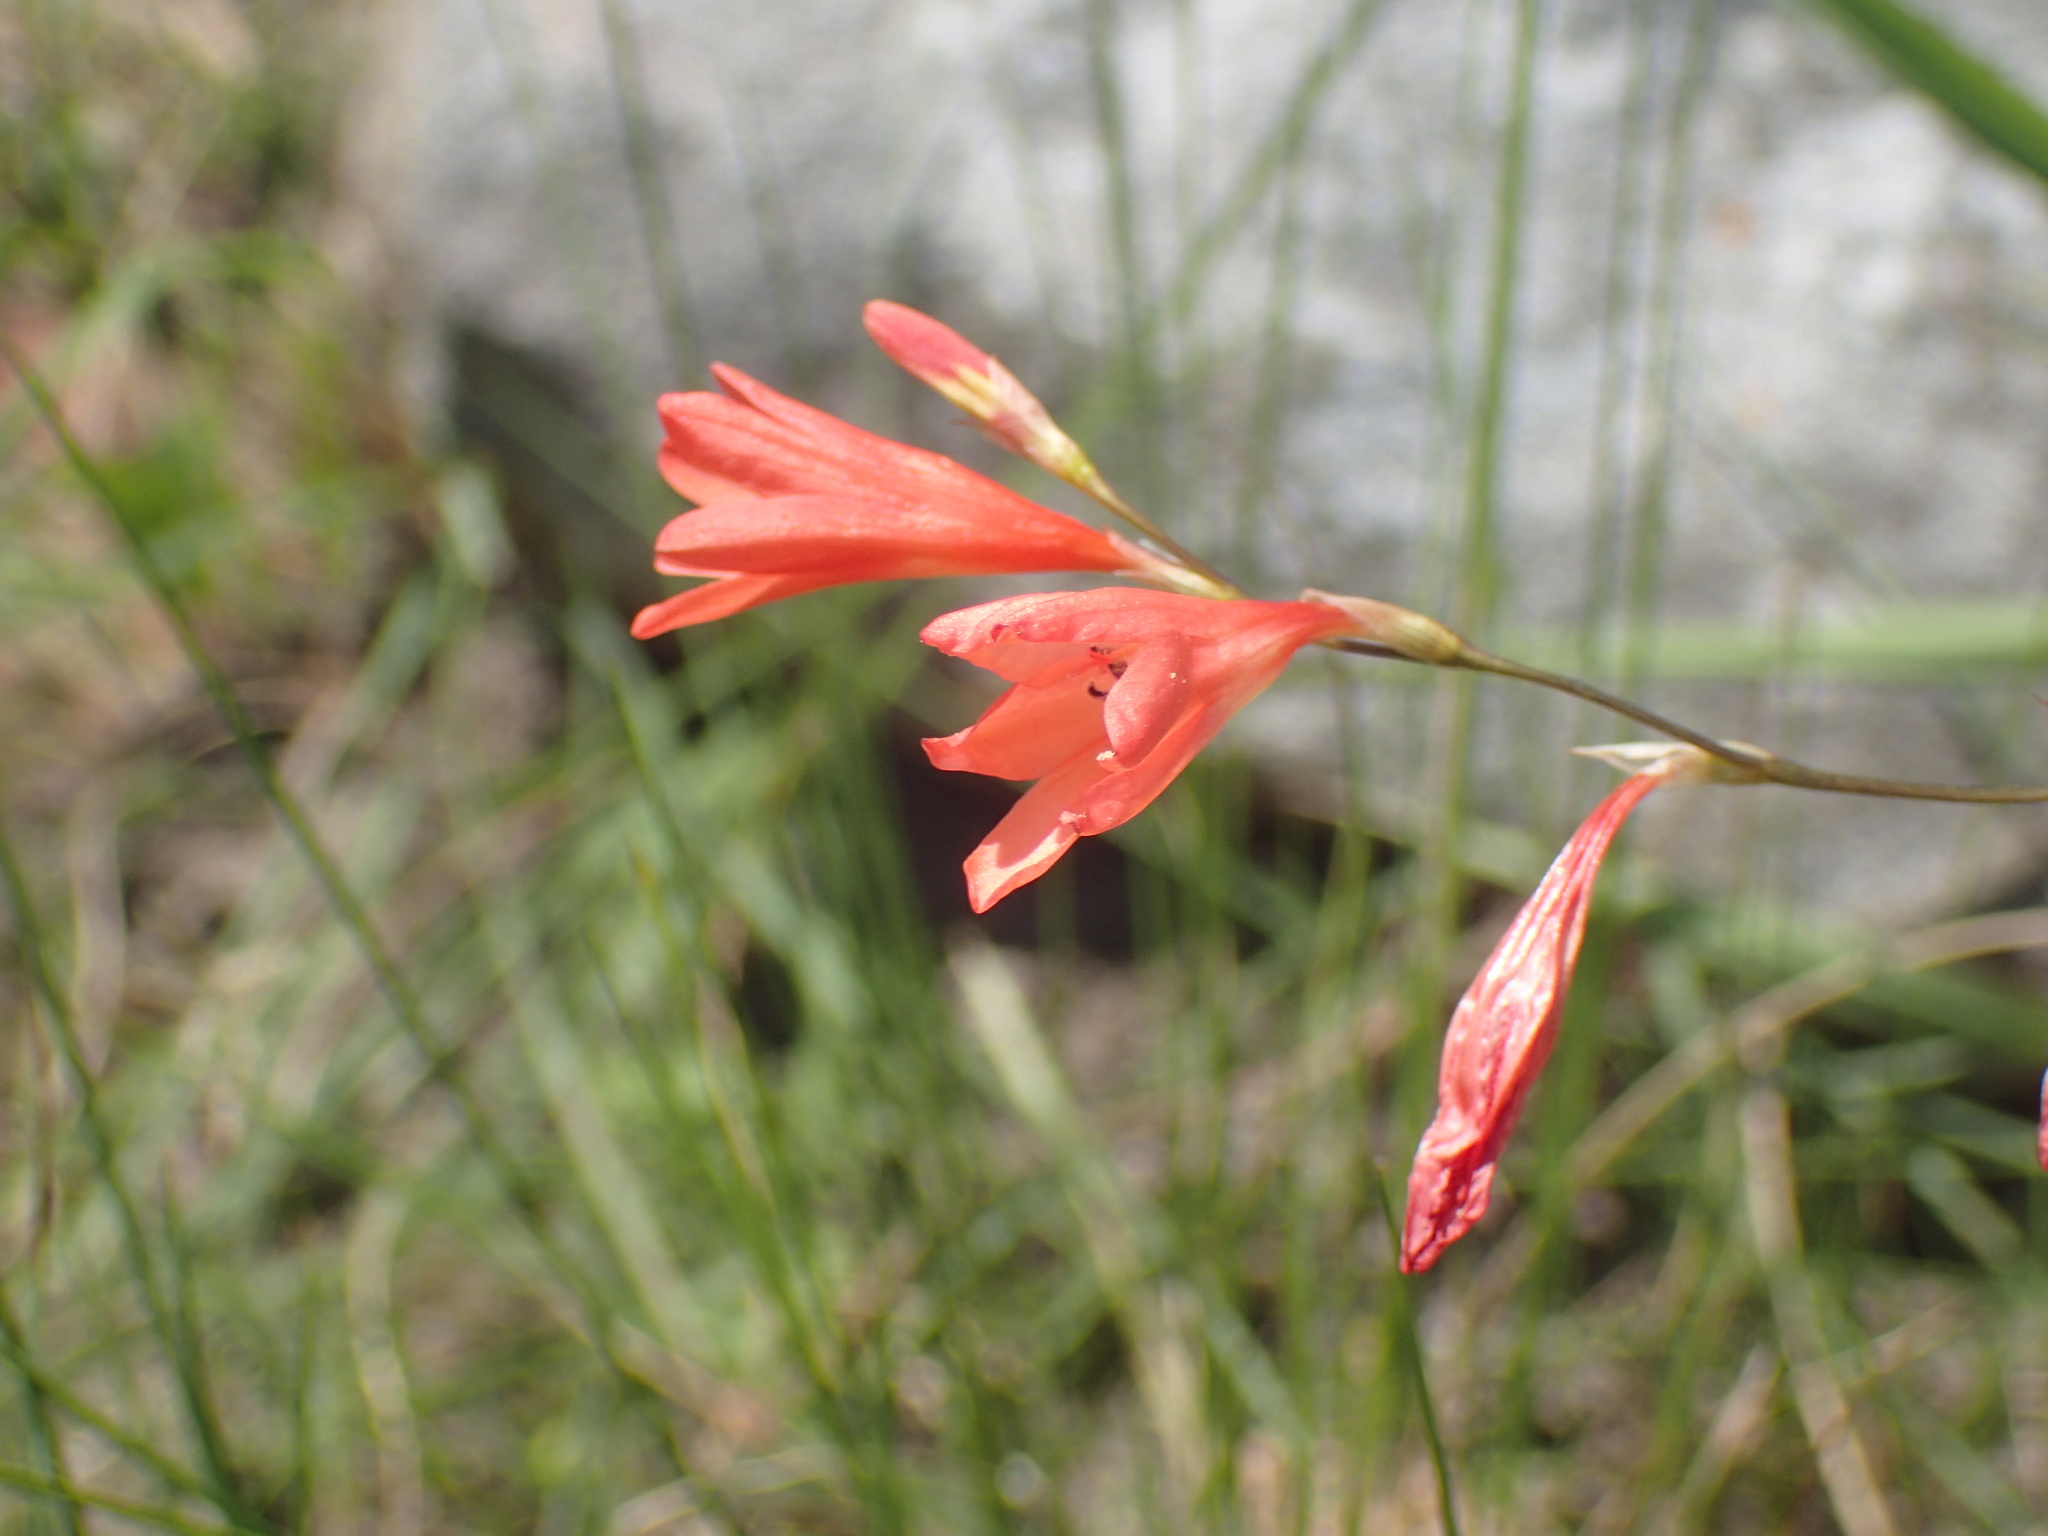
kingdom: Plantae
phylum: Tracheophyta
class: Liliopsida
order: Asparagales
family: Iridaceae
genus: Tritonia
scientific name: Tritonia disticha
